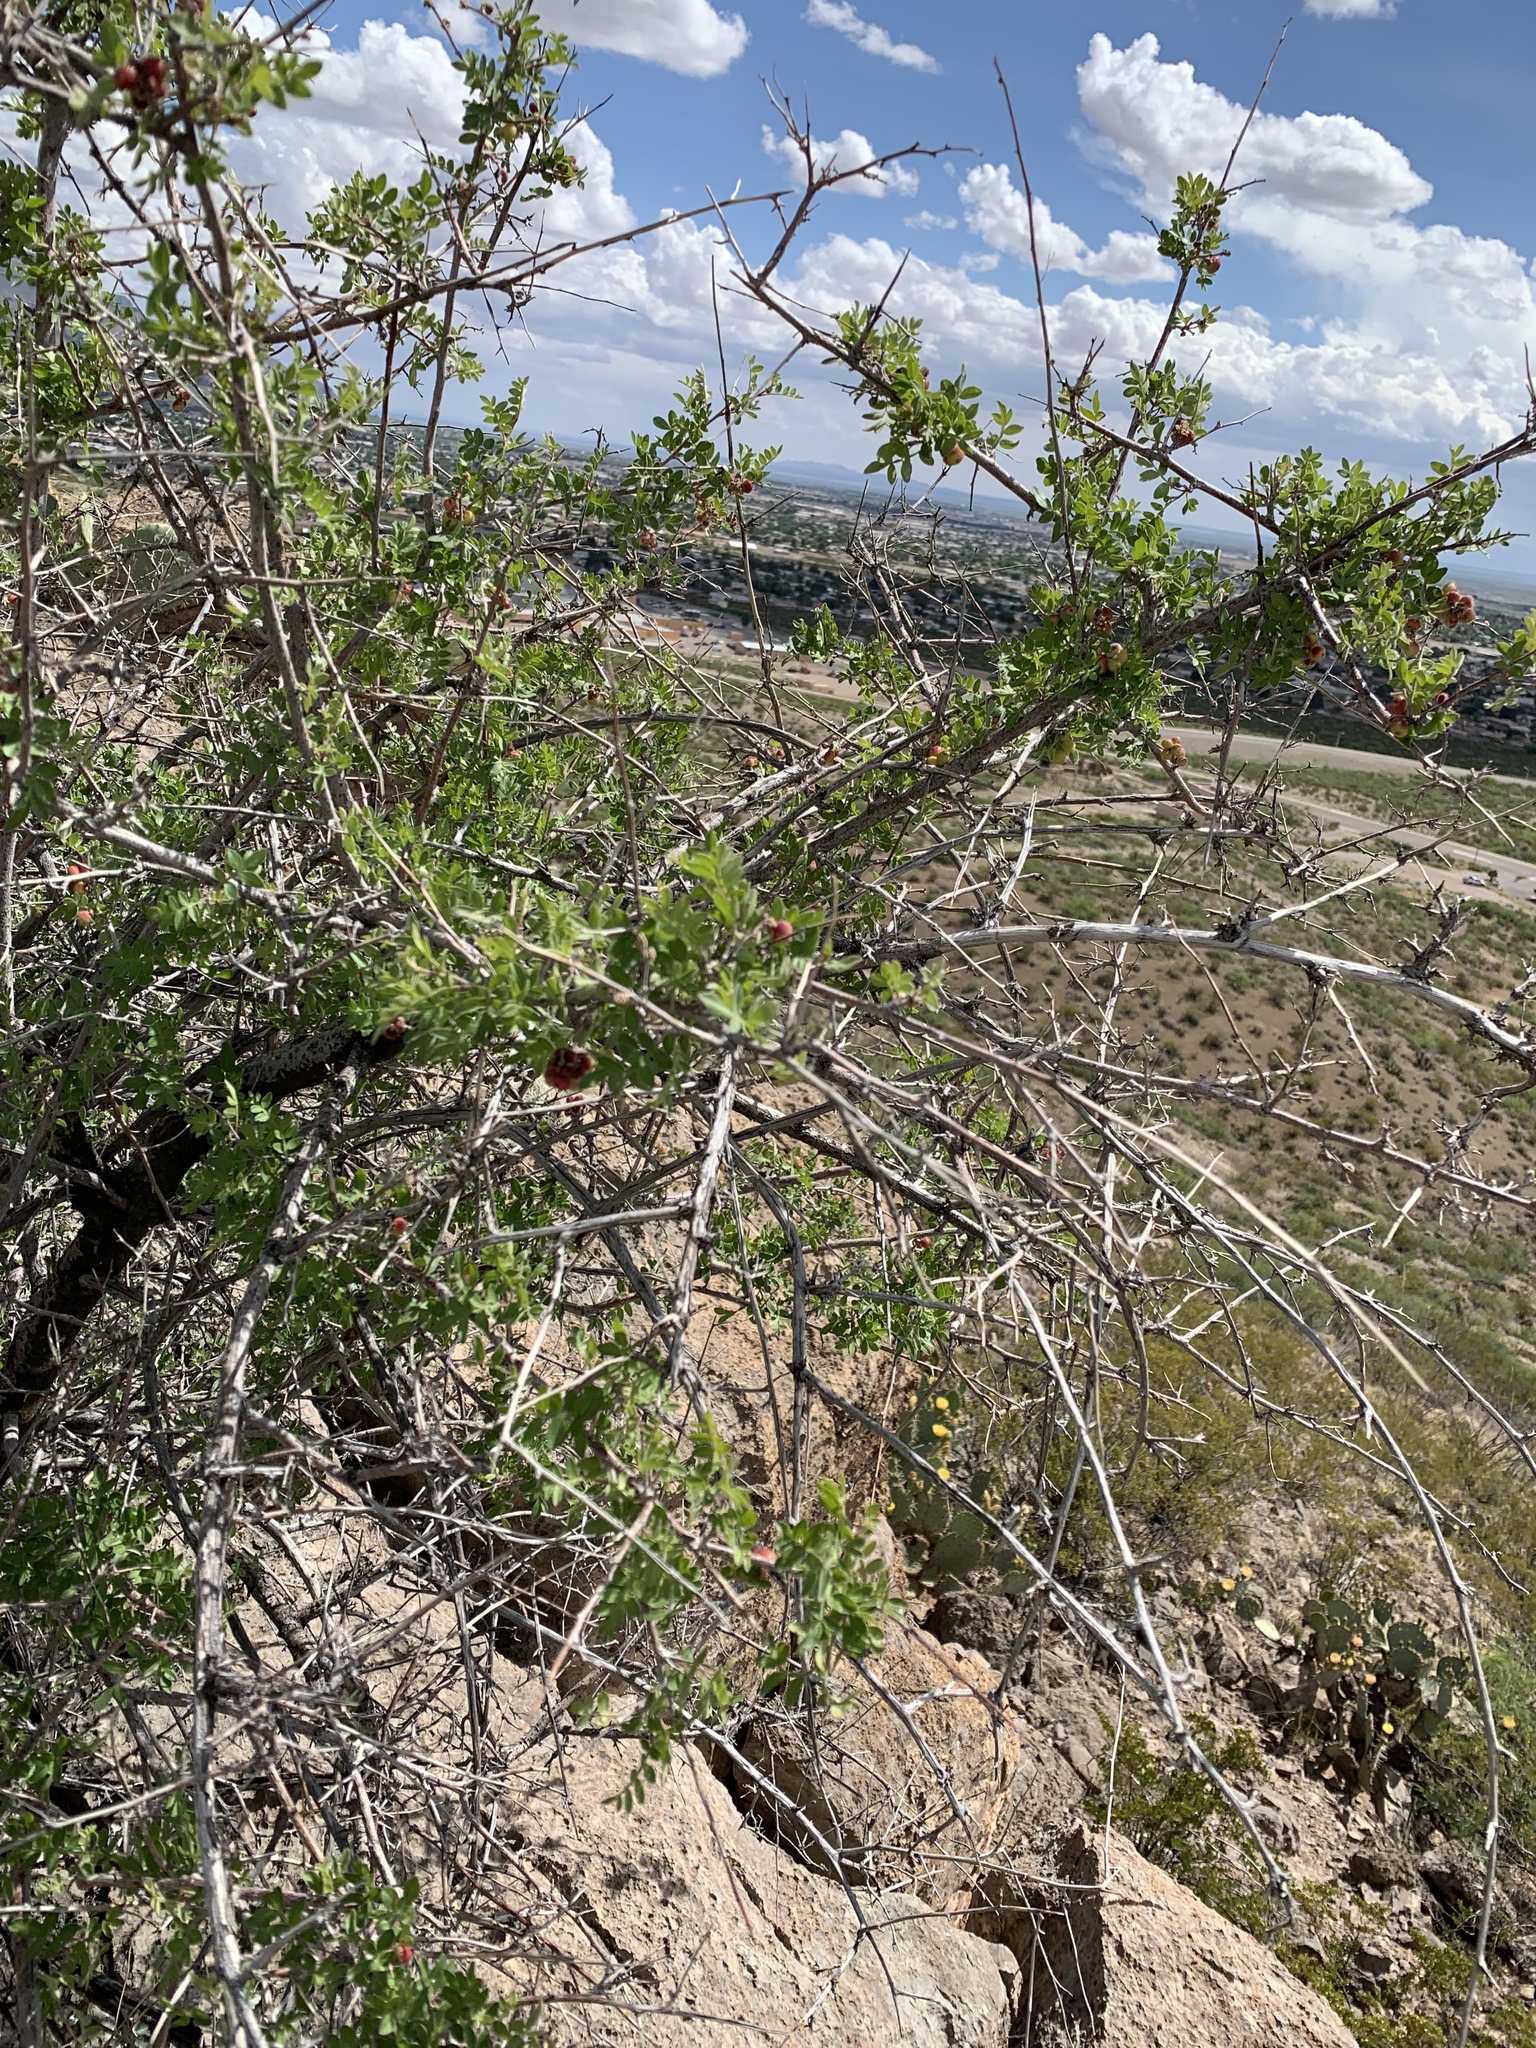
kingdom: Plantae
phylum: Tracheophyta
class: Magnoliopsida
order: Sapindales
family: Anacardiaceae
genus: Rhus
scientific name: Rhus microphylla
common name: Desert sumac
